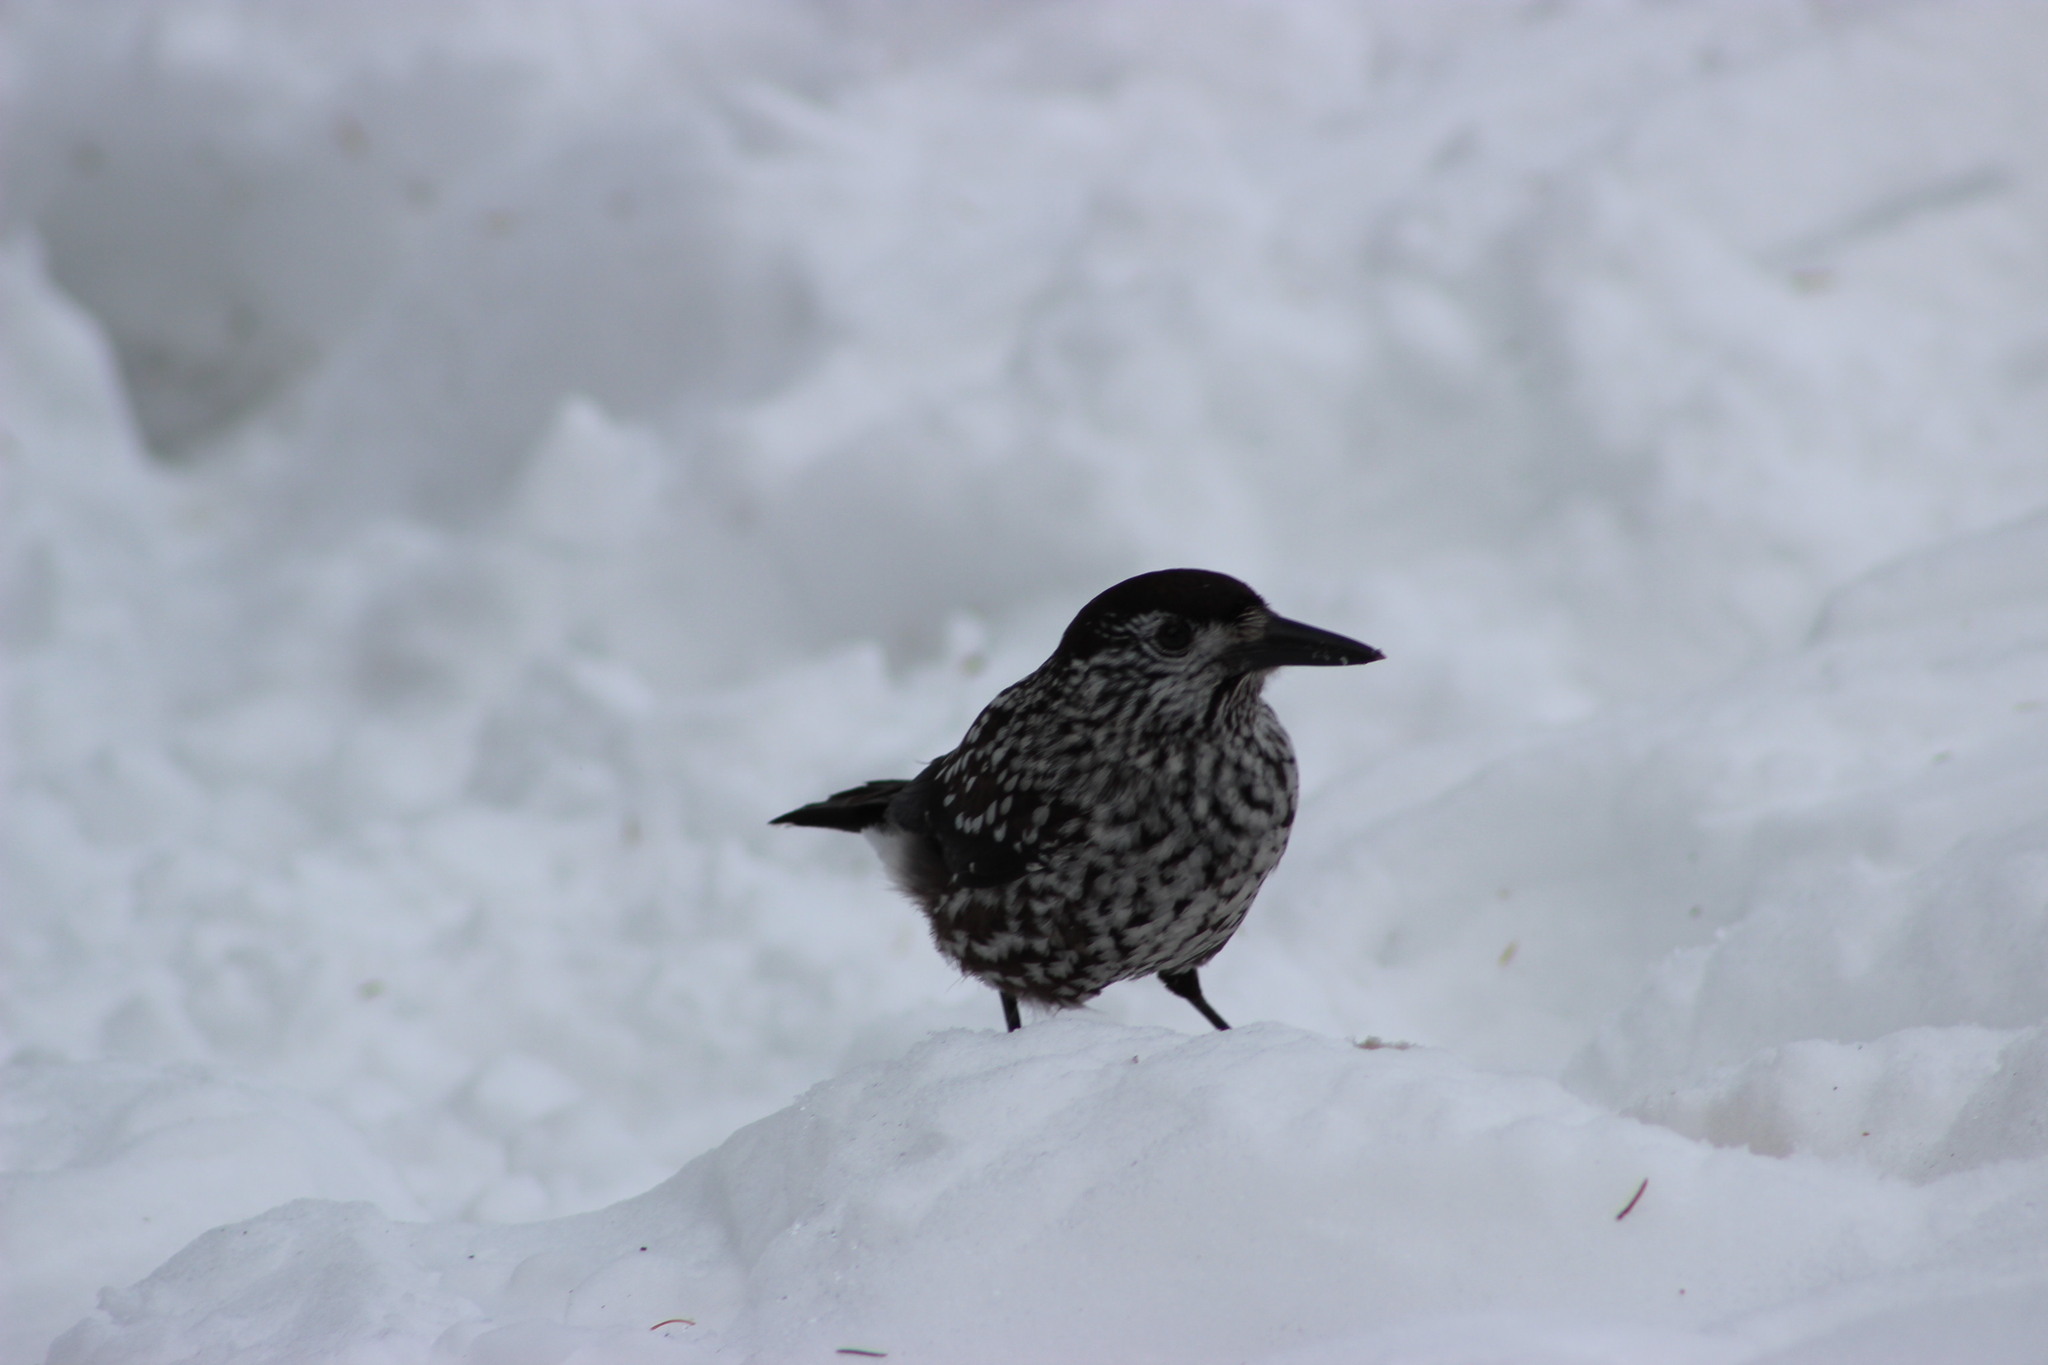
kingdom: Animalia
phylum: Chordata
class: Aves
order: Passeriformes
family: Corvidae
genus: Nucifraga
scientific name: Nucifraga caryocatactes
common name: Spotted nutcracker
